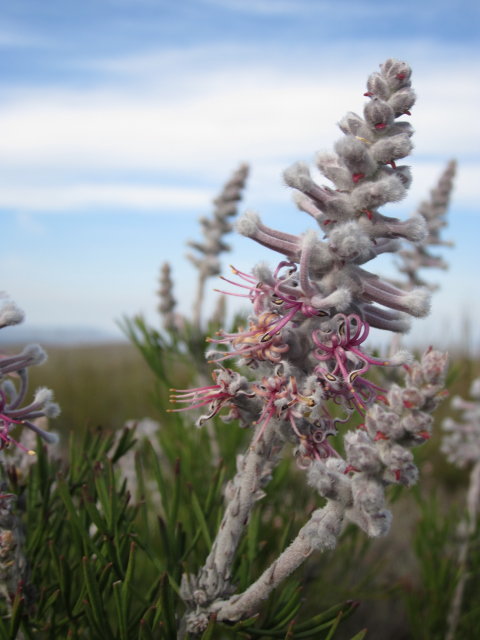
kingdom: Plantae
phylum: Tracheophyta
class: Magnoliopsida
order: Proteales
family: Proteaceae
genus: Paranomus
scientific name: Paranomus dispersus
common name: Long-head sceptre
